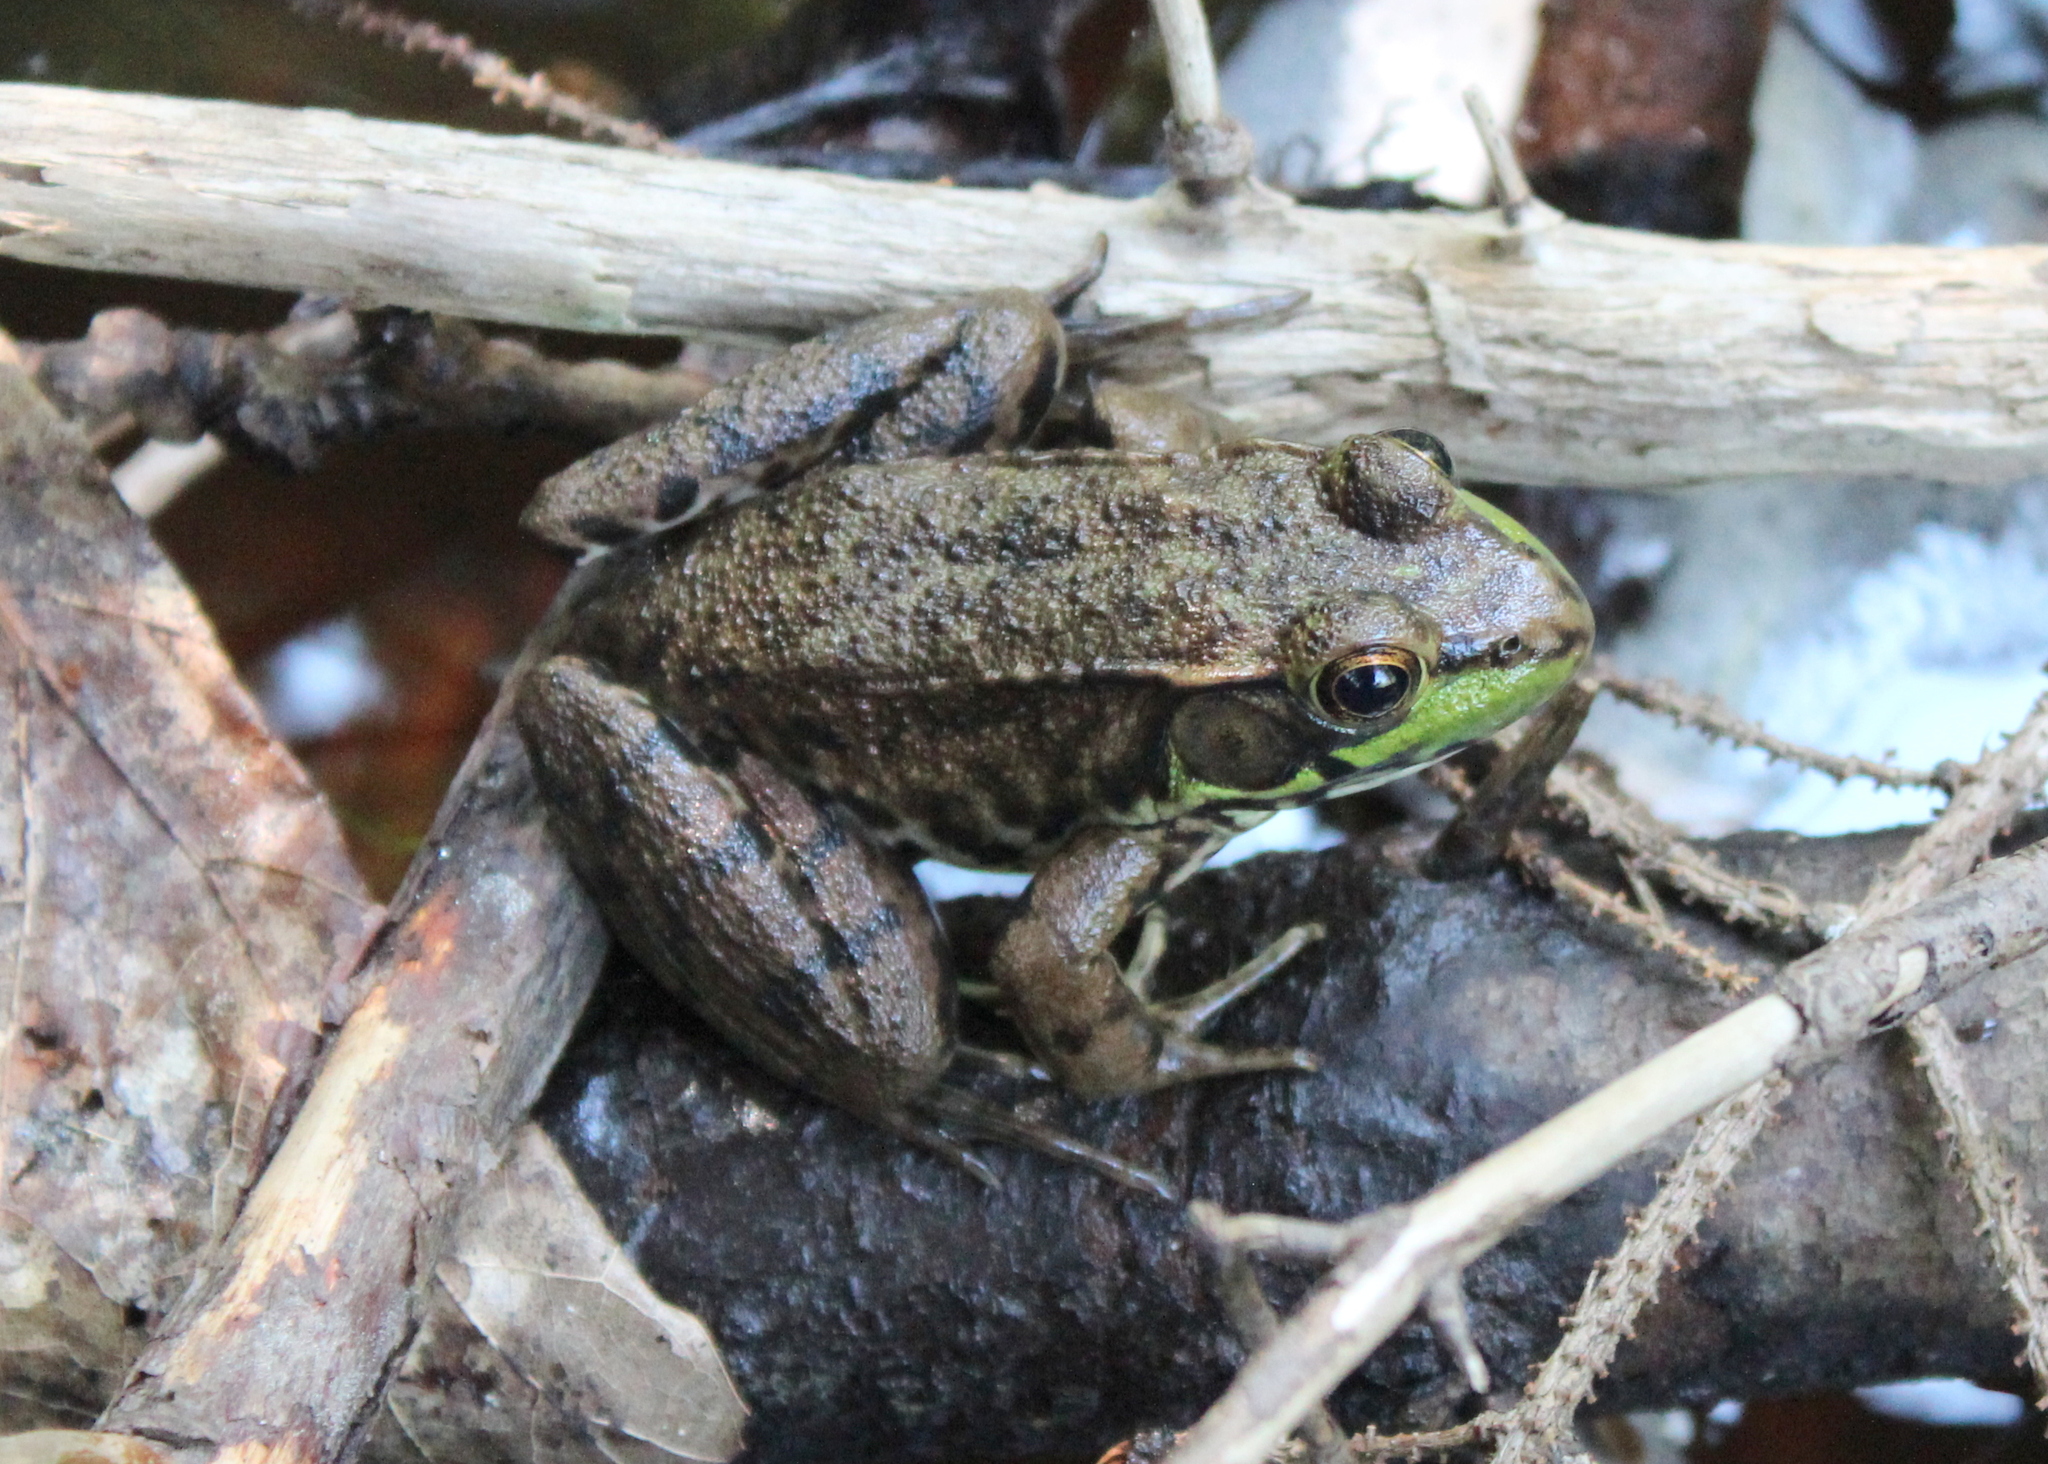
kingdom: Animalia
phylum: Chordata
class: Amphibia
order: Anura
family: Ranidae
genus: Lithobates
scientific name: Lithobates clamitans
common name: Green frog
